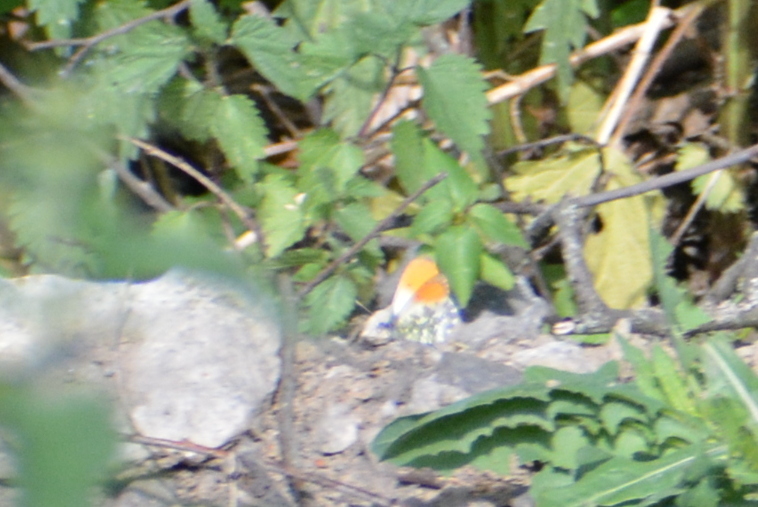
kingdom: Animalia
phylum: Arthropoda
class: Insecta
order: Lepidoptera
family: Pieridae
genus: Anthocharis
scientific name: Anthocharis cardamines
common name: Orange-tip
